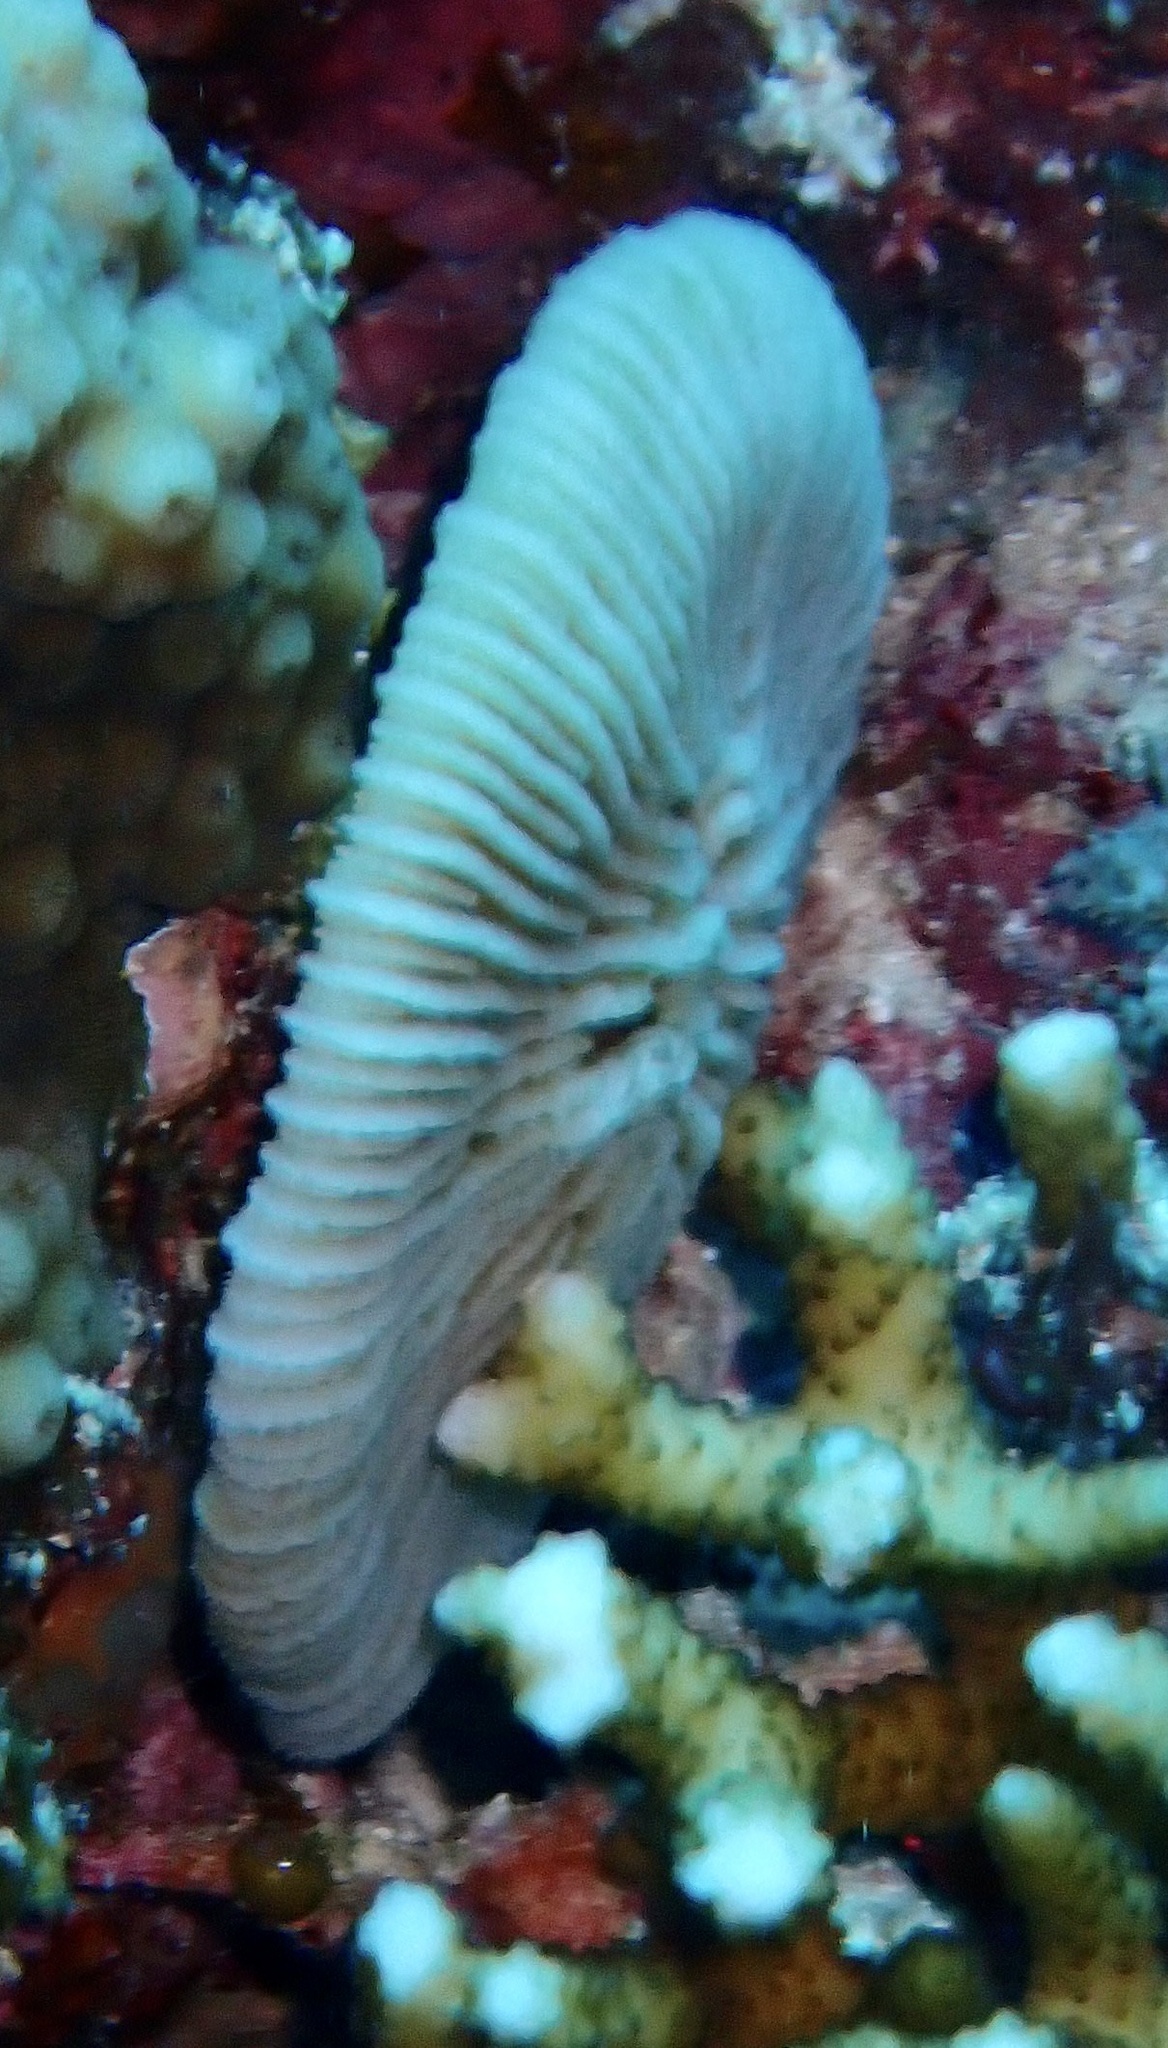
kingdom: Animalia
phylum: Cnidaria
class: Anthozoa
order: Scleractinia
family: Fungiidae
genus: Pleuractis
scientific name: Pleuractis granulosa
